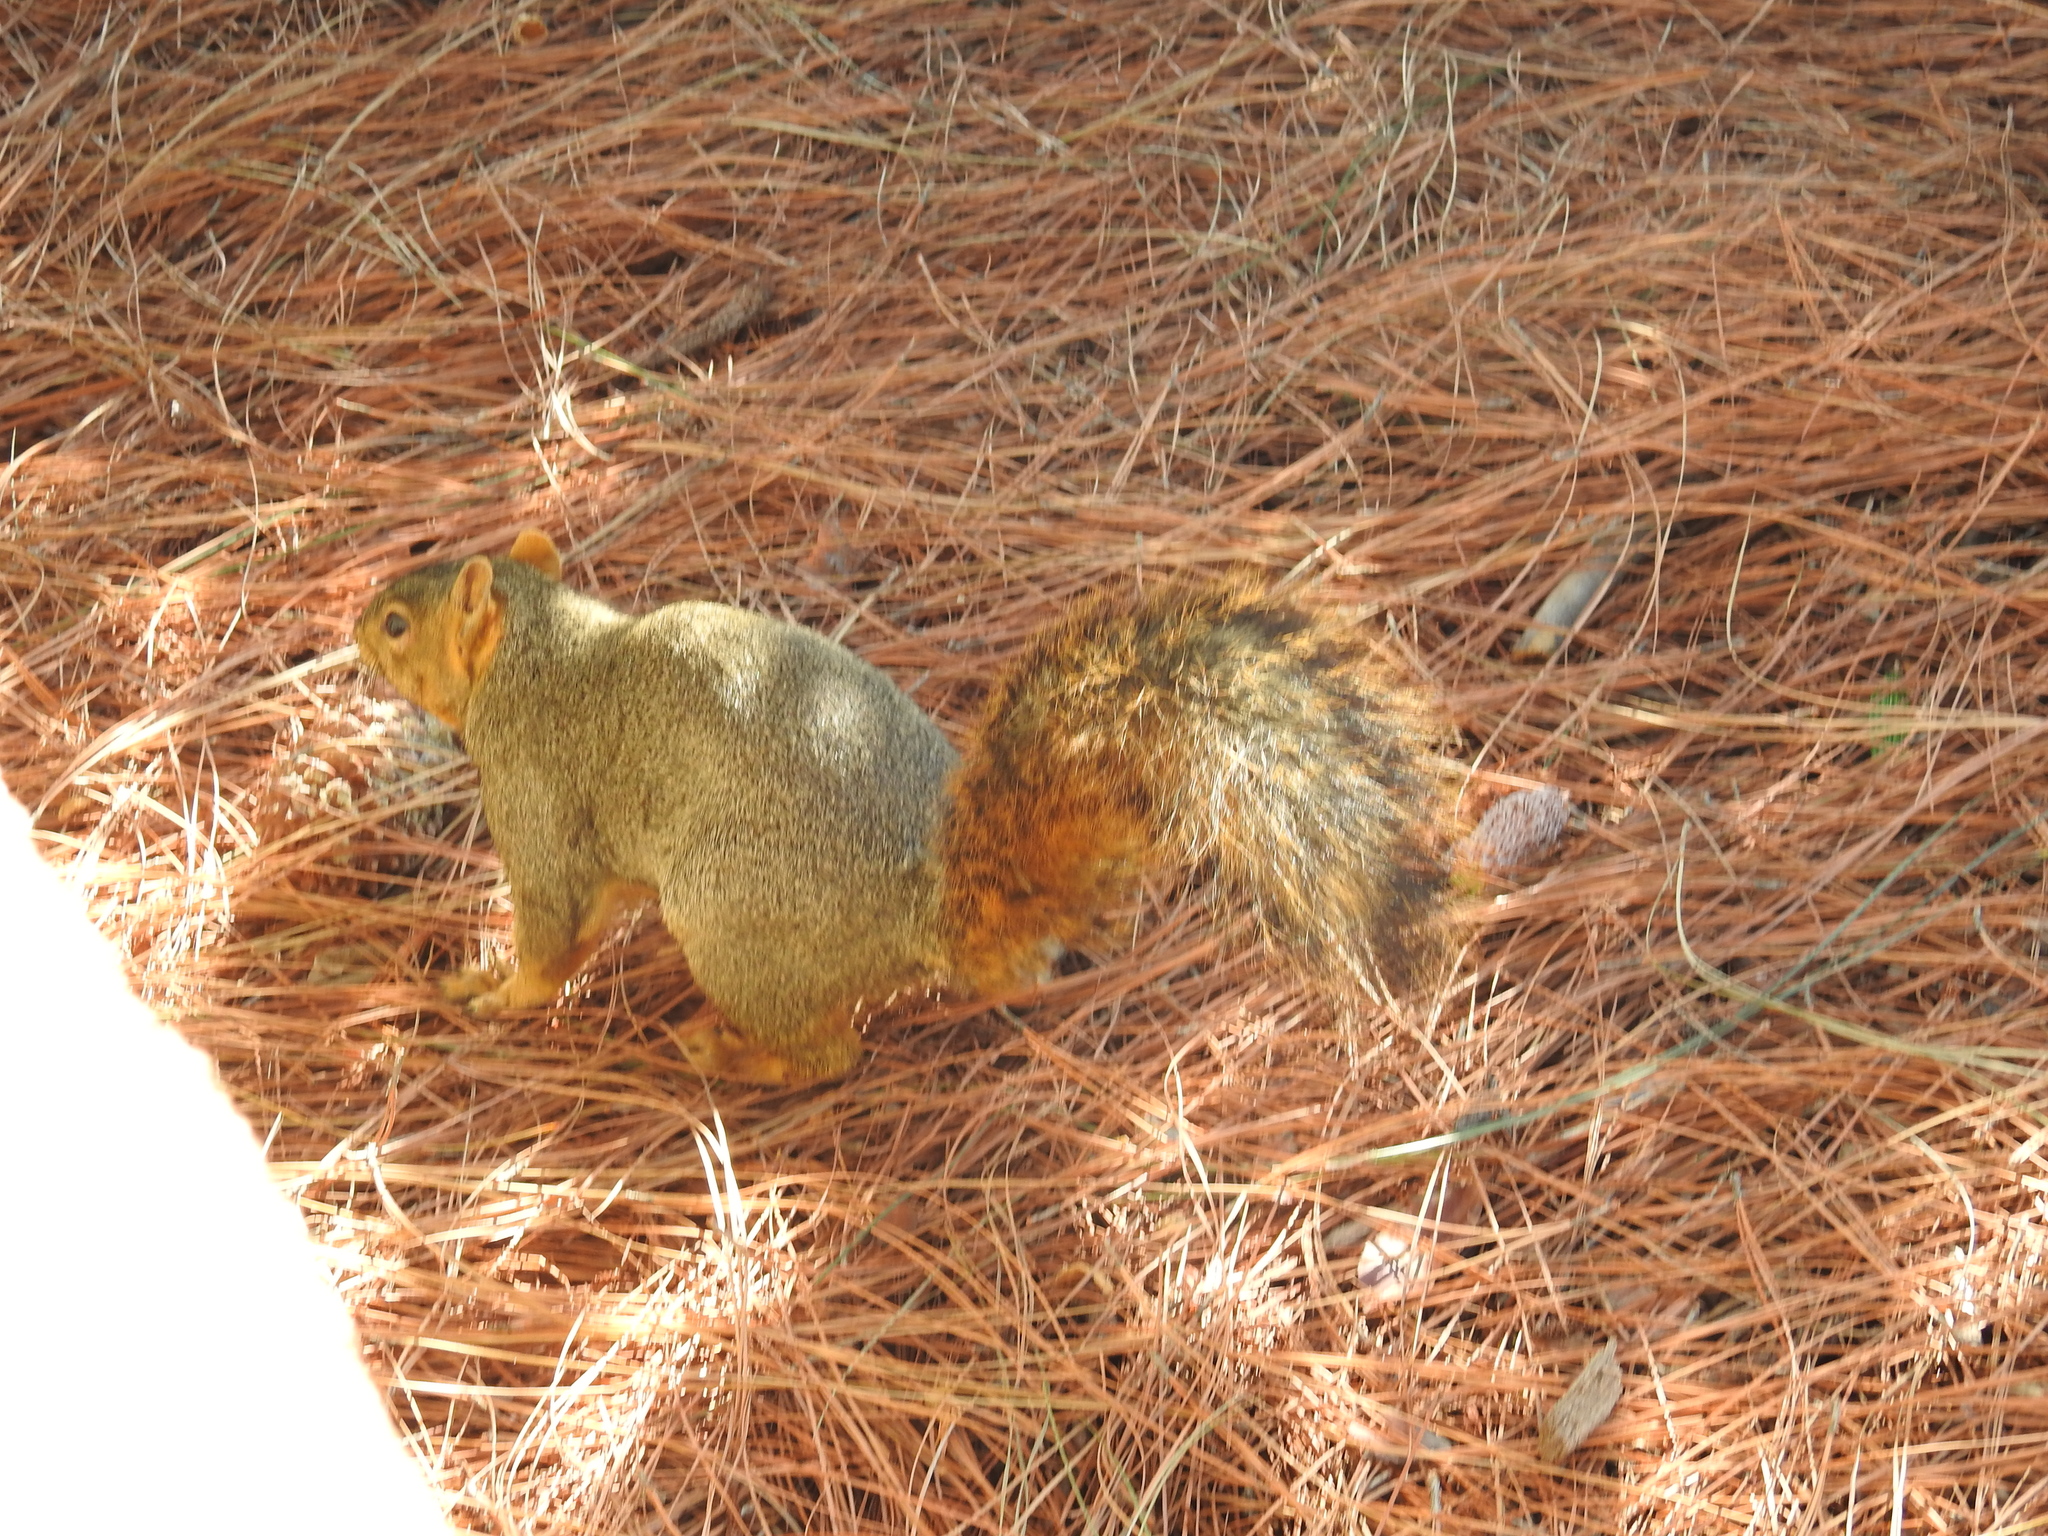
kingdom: Animalia
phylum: Chordata
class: Mammalia
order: Rodentia
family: Sciuridae
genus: Sciurus
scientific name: Sciurus niger
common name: Fox squirrel
